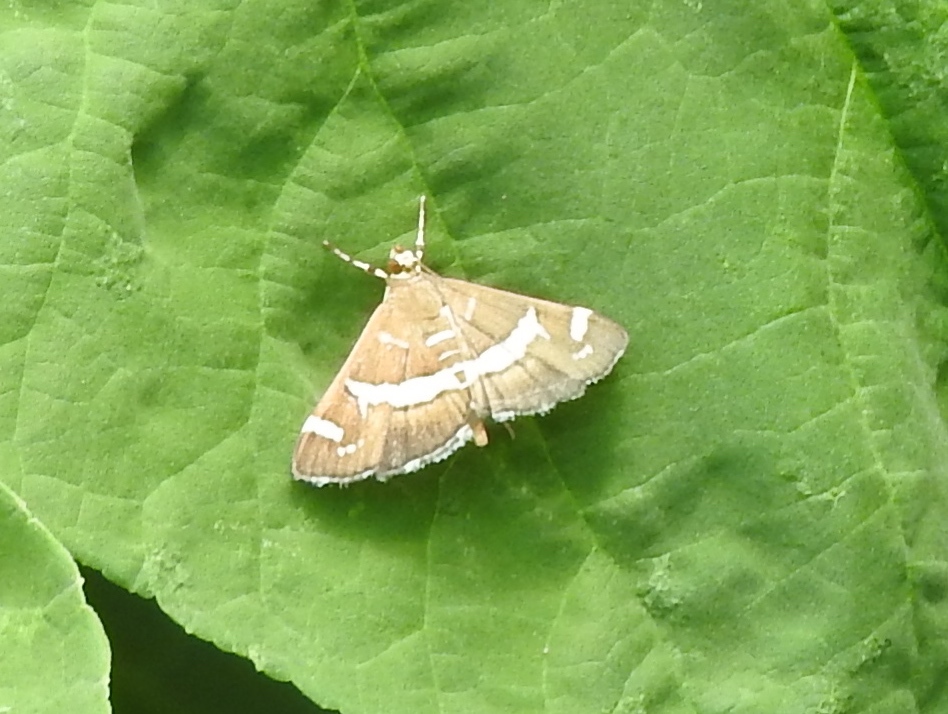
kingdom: Animalia
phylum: Arthropoda
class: Insecta
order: Lepidoptera
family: Crambidae
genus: Spoladea
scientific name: Spoladea recurvalis
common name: Beet webworm moth
